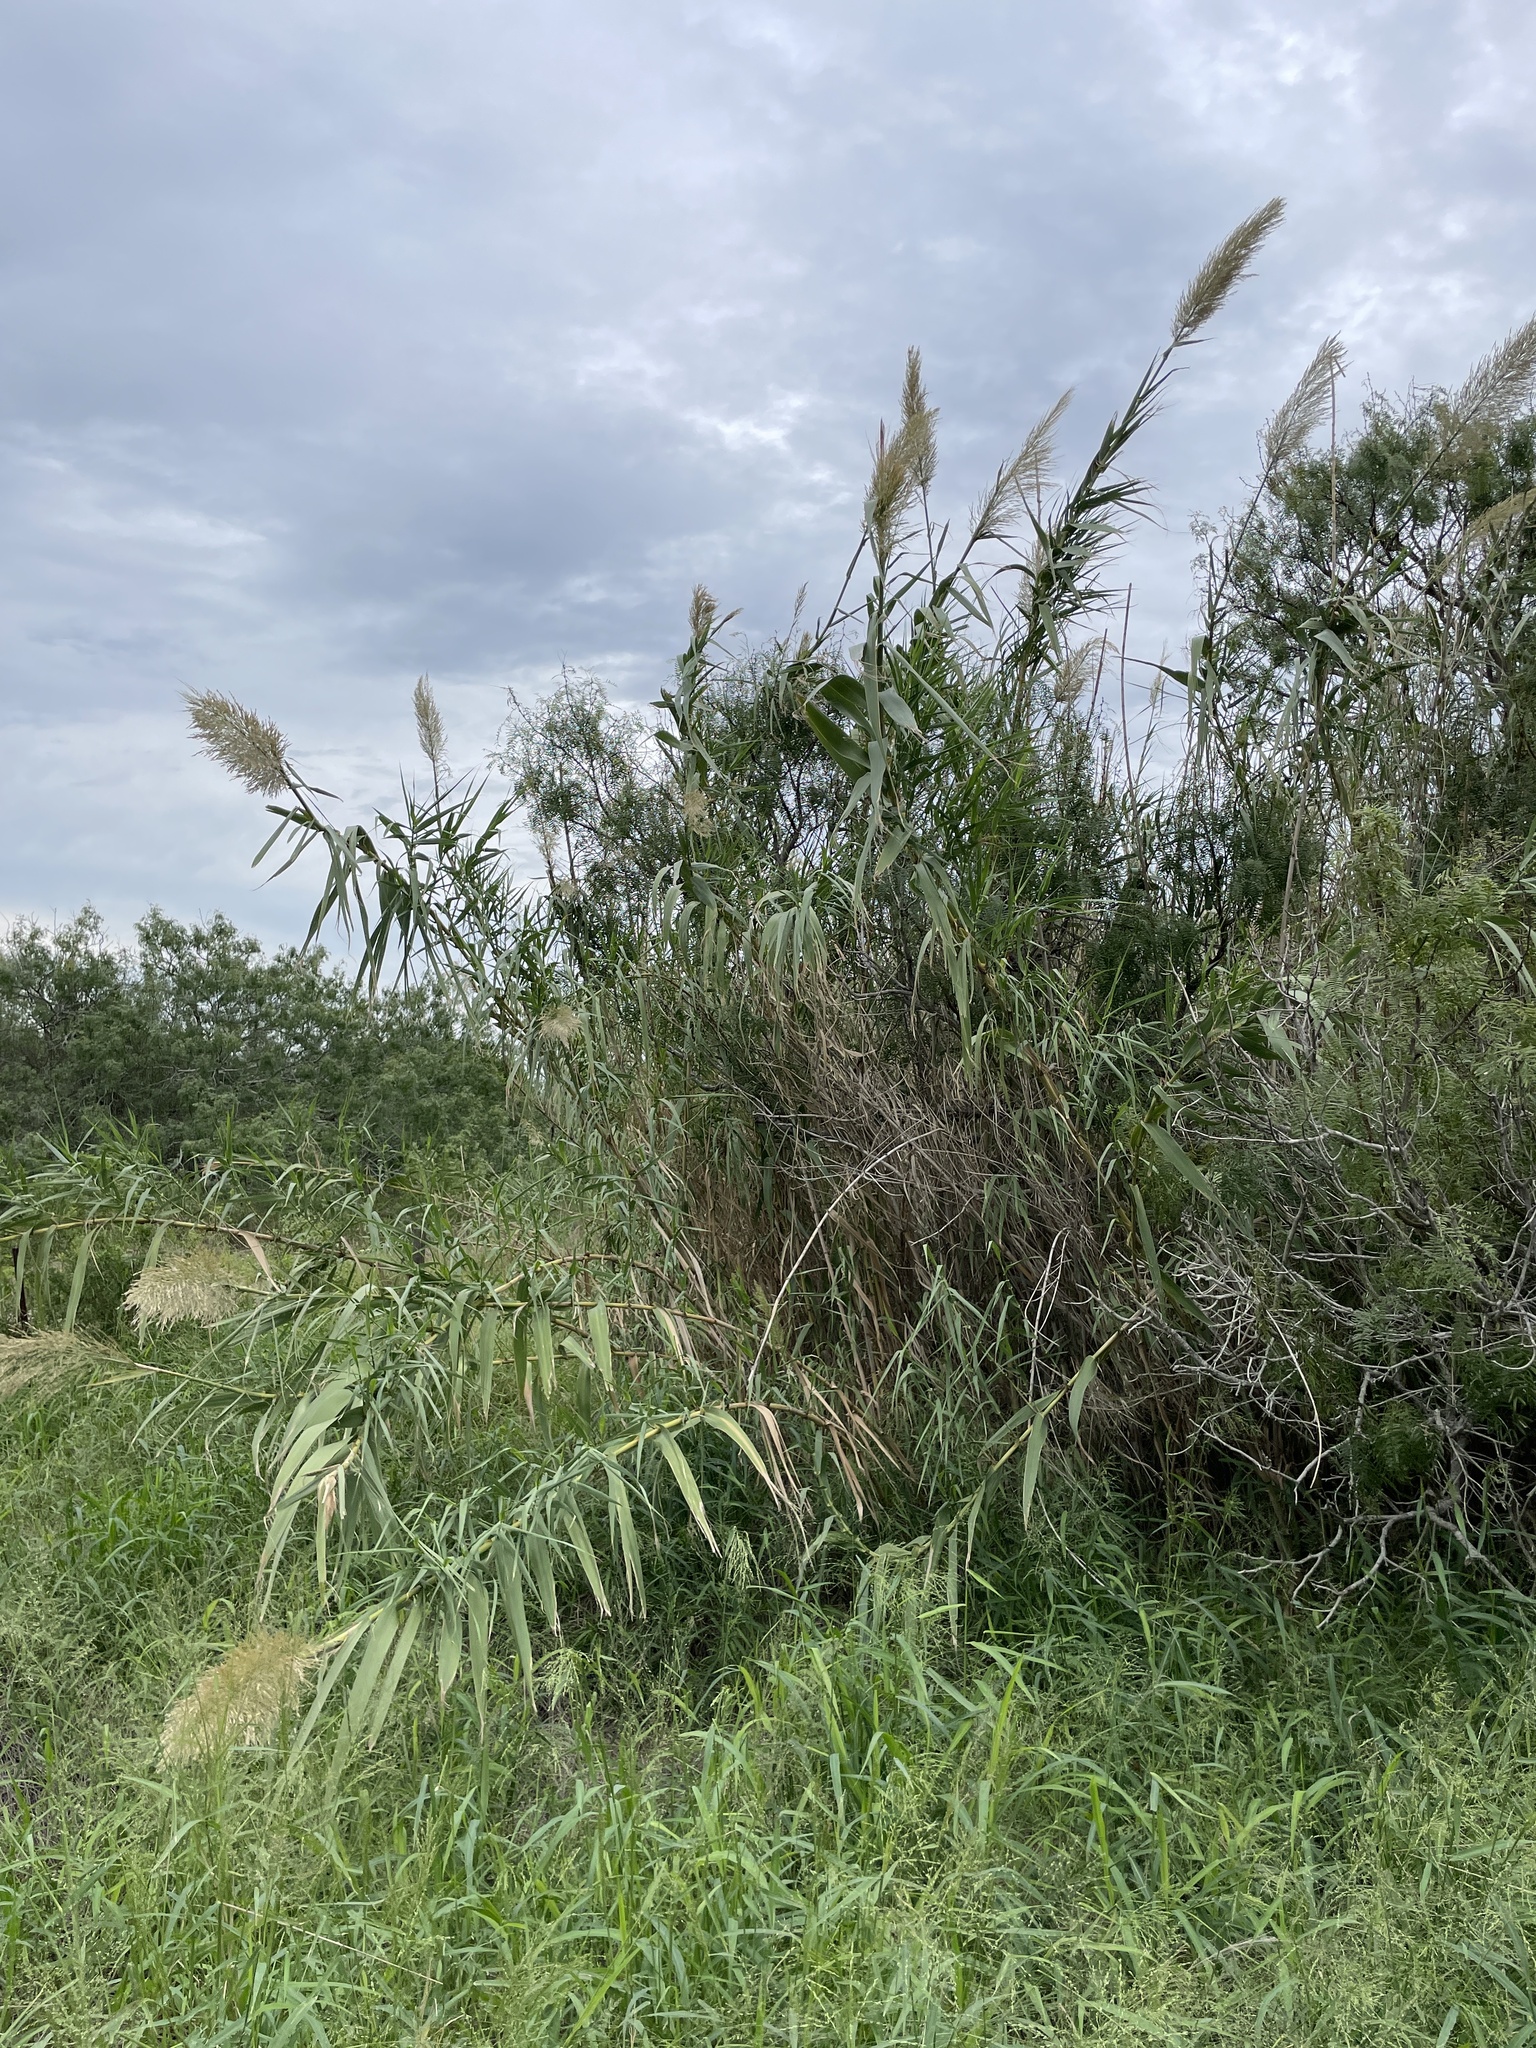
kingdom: Plantae
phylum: Tracheophyta
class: Liliopsida
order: Poales
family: Poaceae
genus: Arundo
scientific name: Arundo donax
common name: Giant reed
